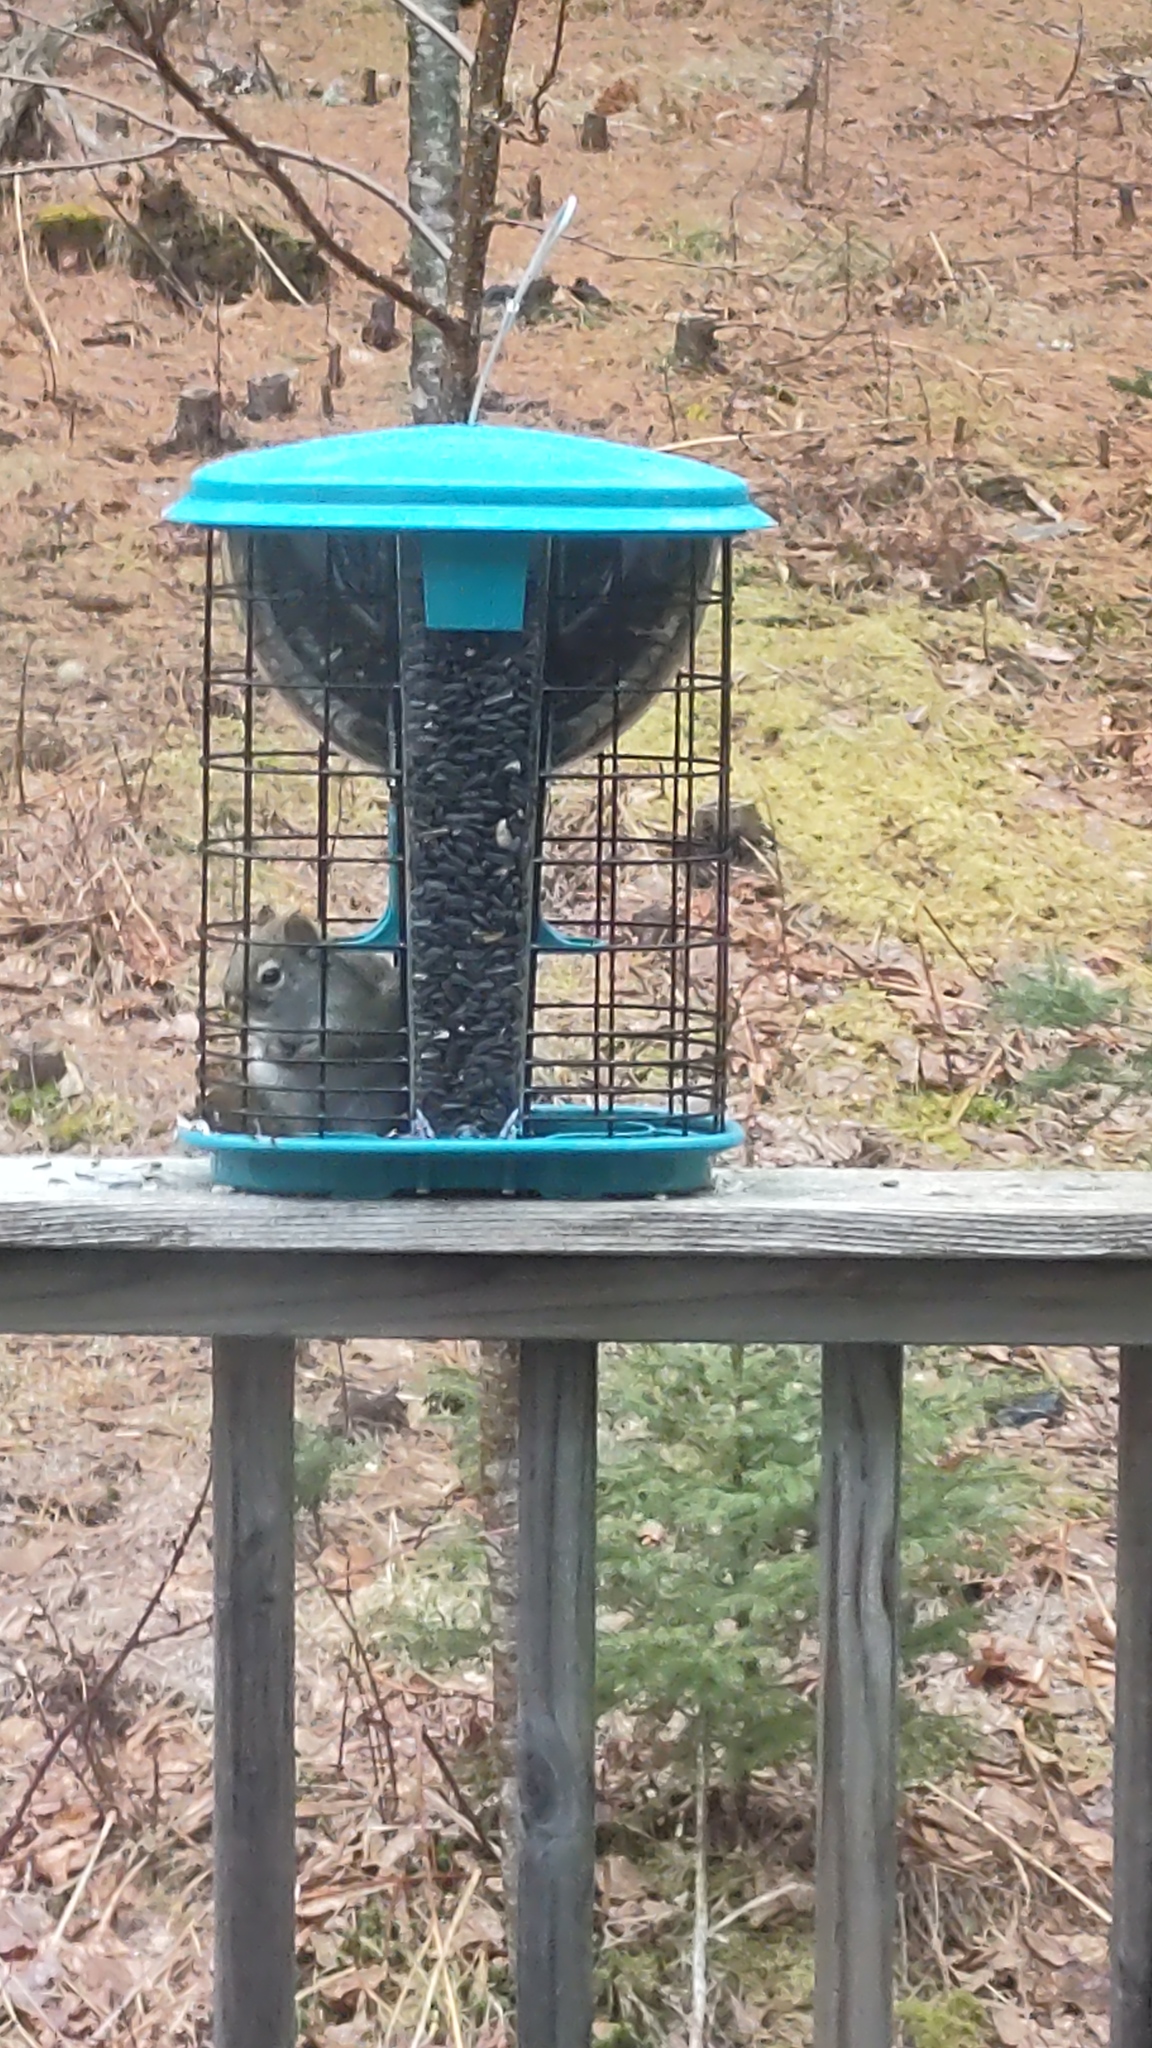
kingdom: Animalia
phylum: Chordata
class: Mammalia
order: Rodentia
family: Sciuridae
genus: Tamiasciurus
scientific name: Tamiasciurus hudsonicus
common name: Red squirrel
